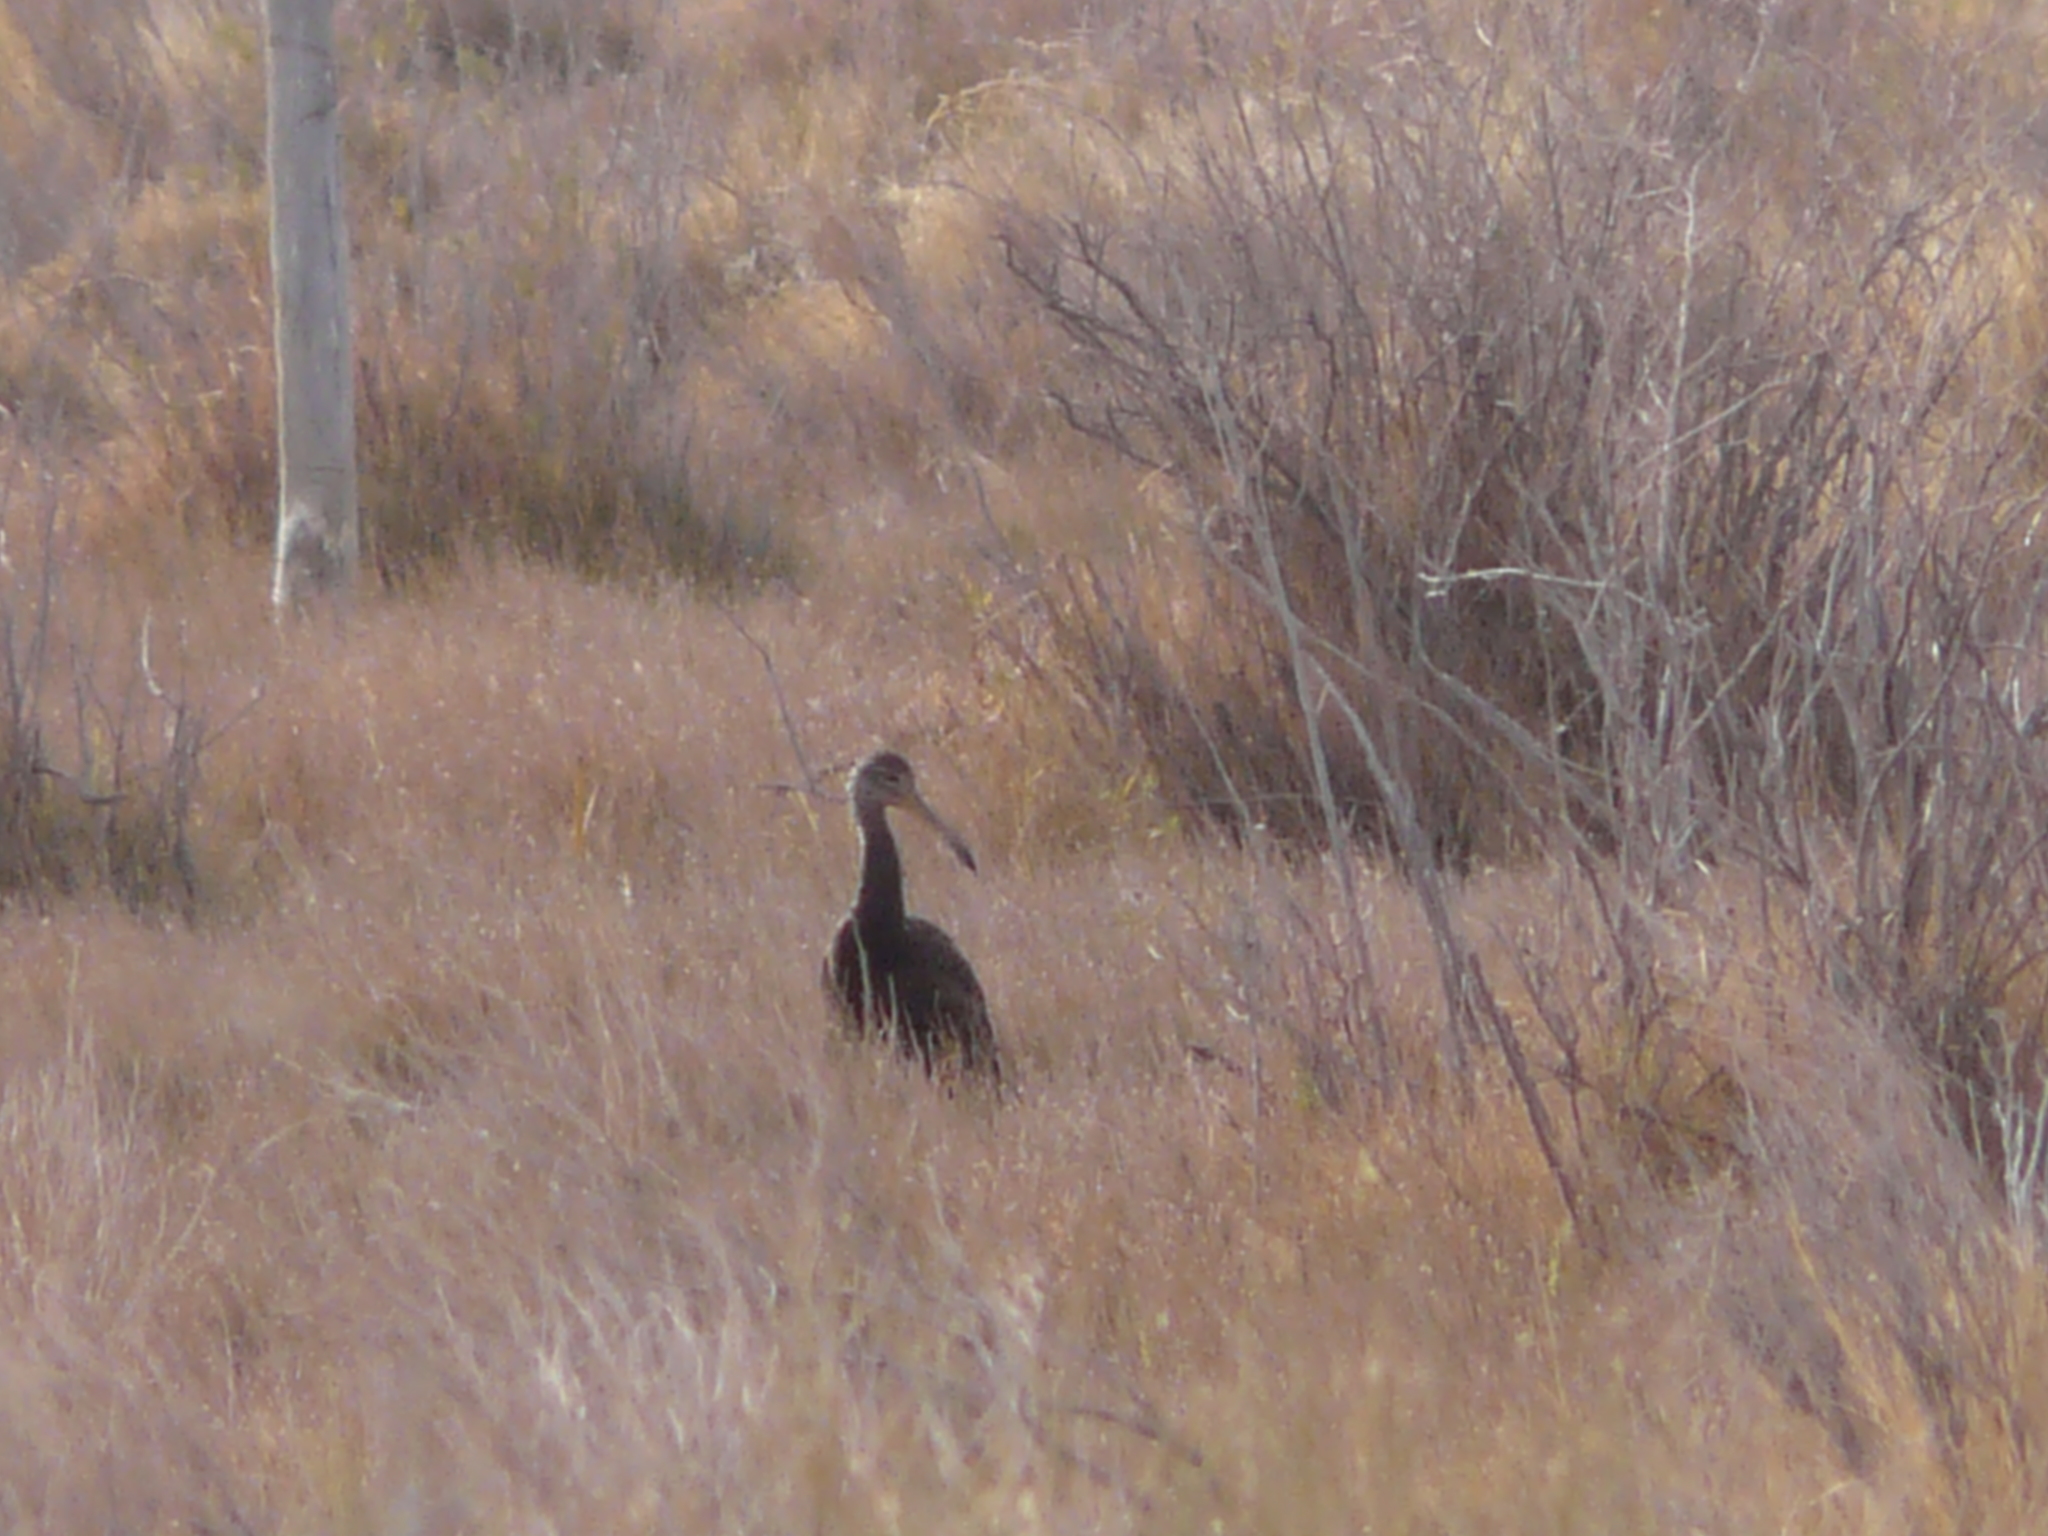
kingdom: Animalia
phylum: Chordata
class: Aves
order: Gruiformes
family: Aramidae
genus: Aramus
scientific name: Aramus guarauna
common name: Limpkin
